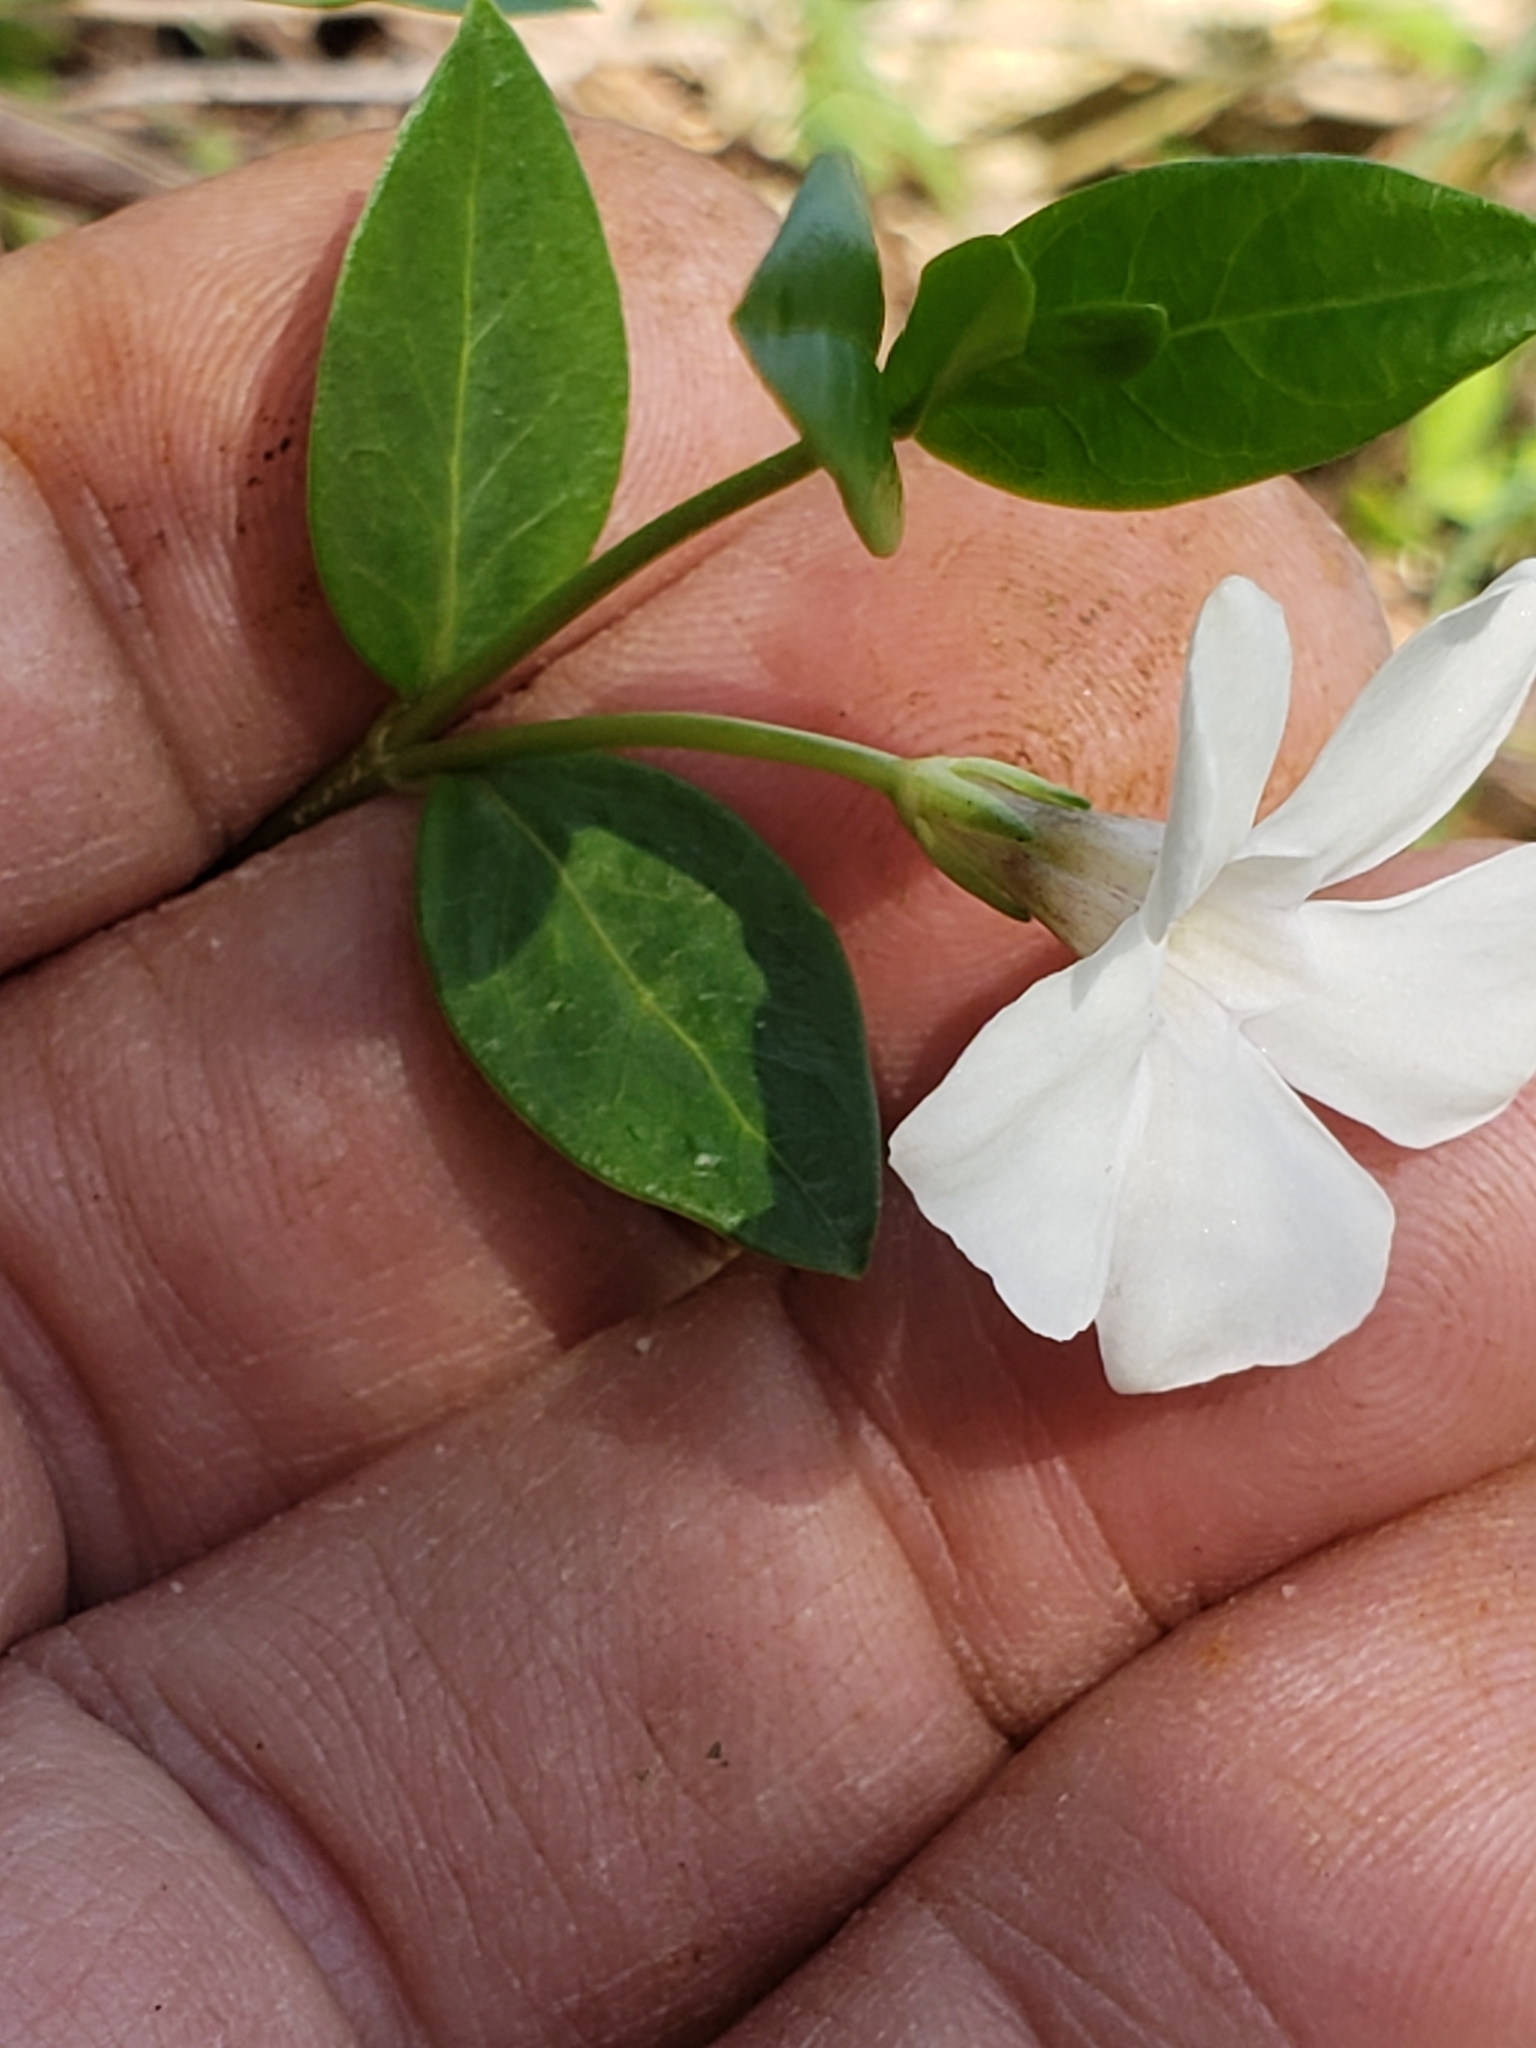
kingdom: Plantae
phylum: Tracheophyta
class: Magnoliopsida
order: Gentianales
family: Apocynaceae
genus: Vinca
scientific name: Vinca minor
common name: Lesser periwinkle
